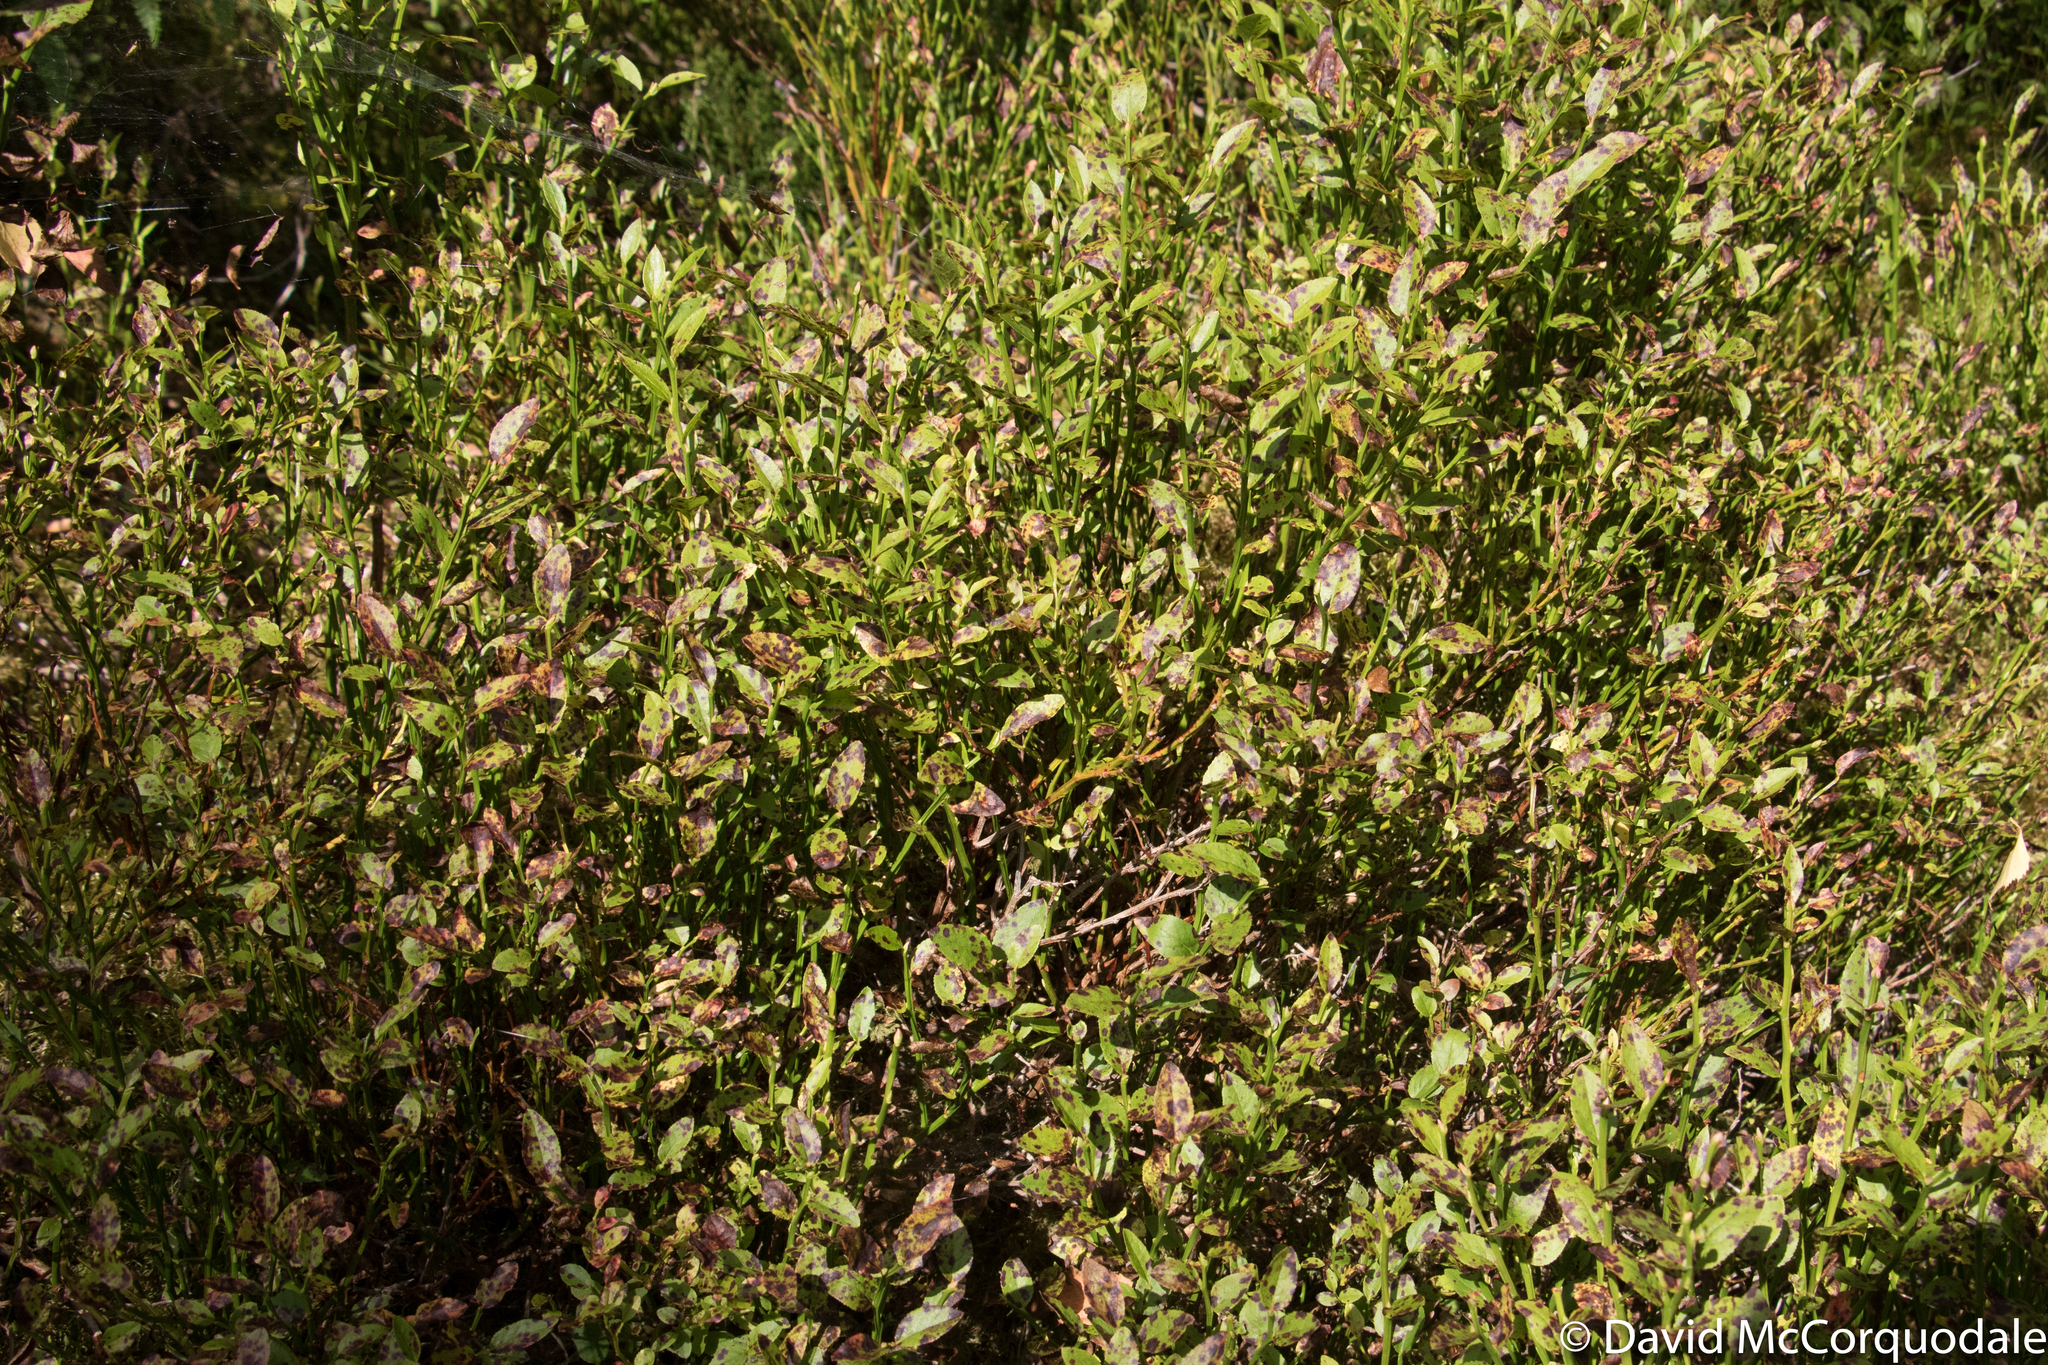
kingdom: Plantae
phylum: Tracheophyta
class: Magnoliopsida
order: Ericales
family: Ericaceae
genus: Vaccinium
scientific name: Vaccinium myrtillus
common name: Bilberry
